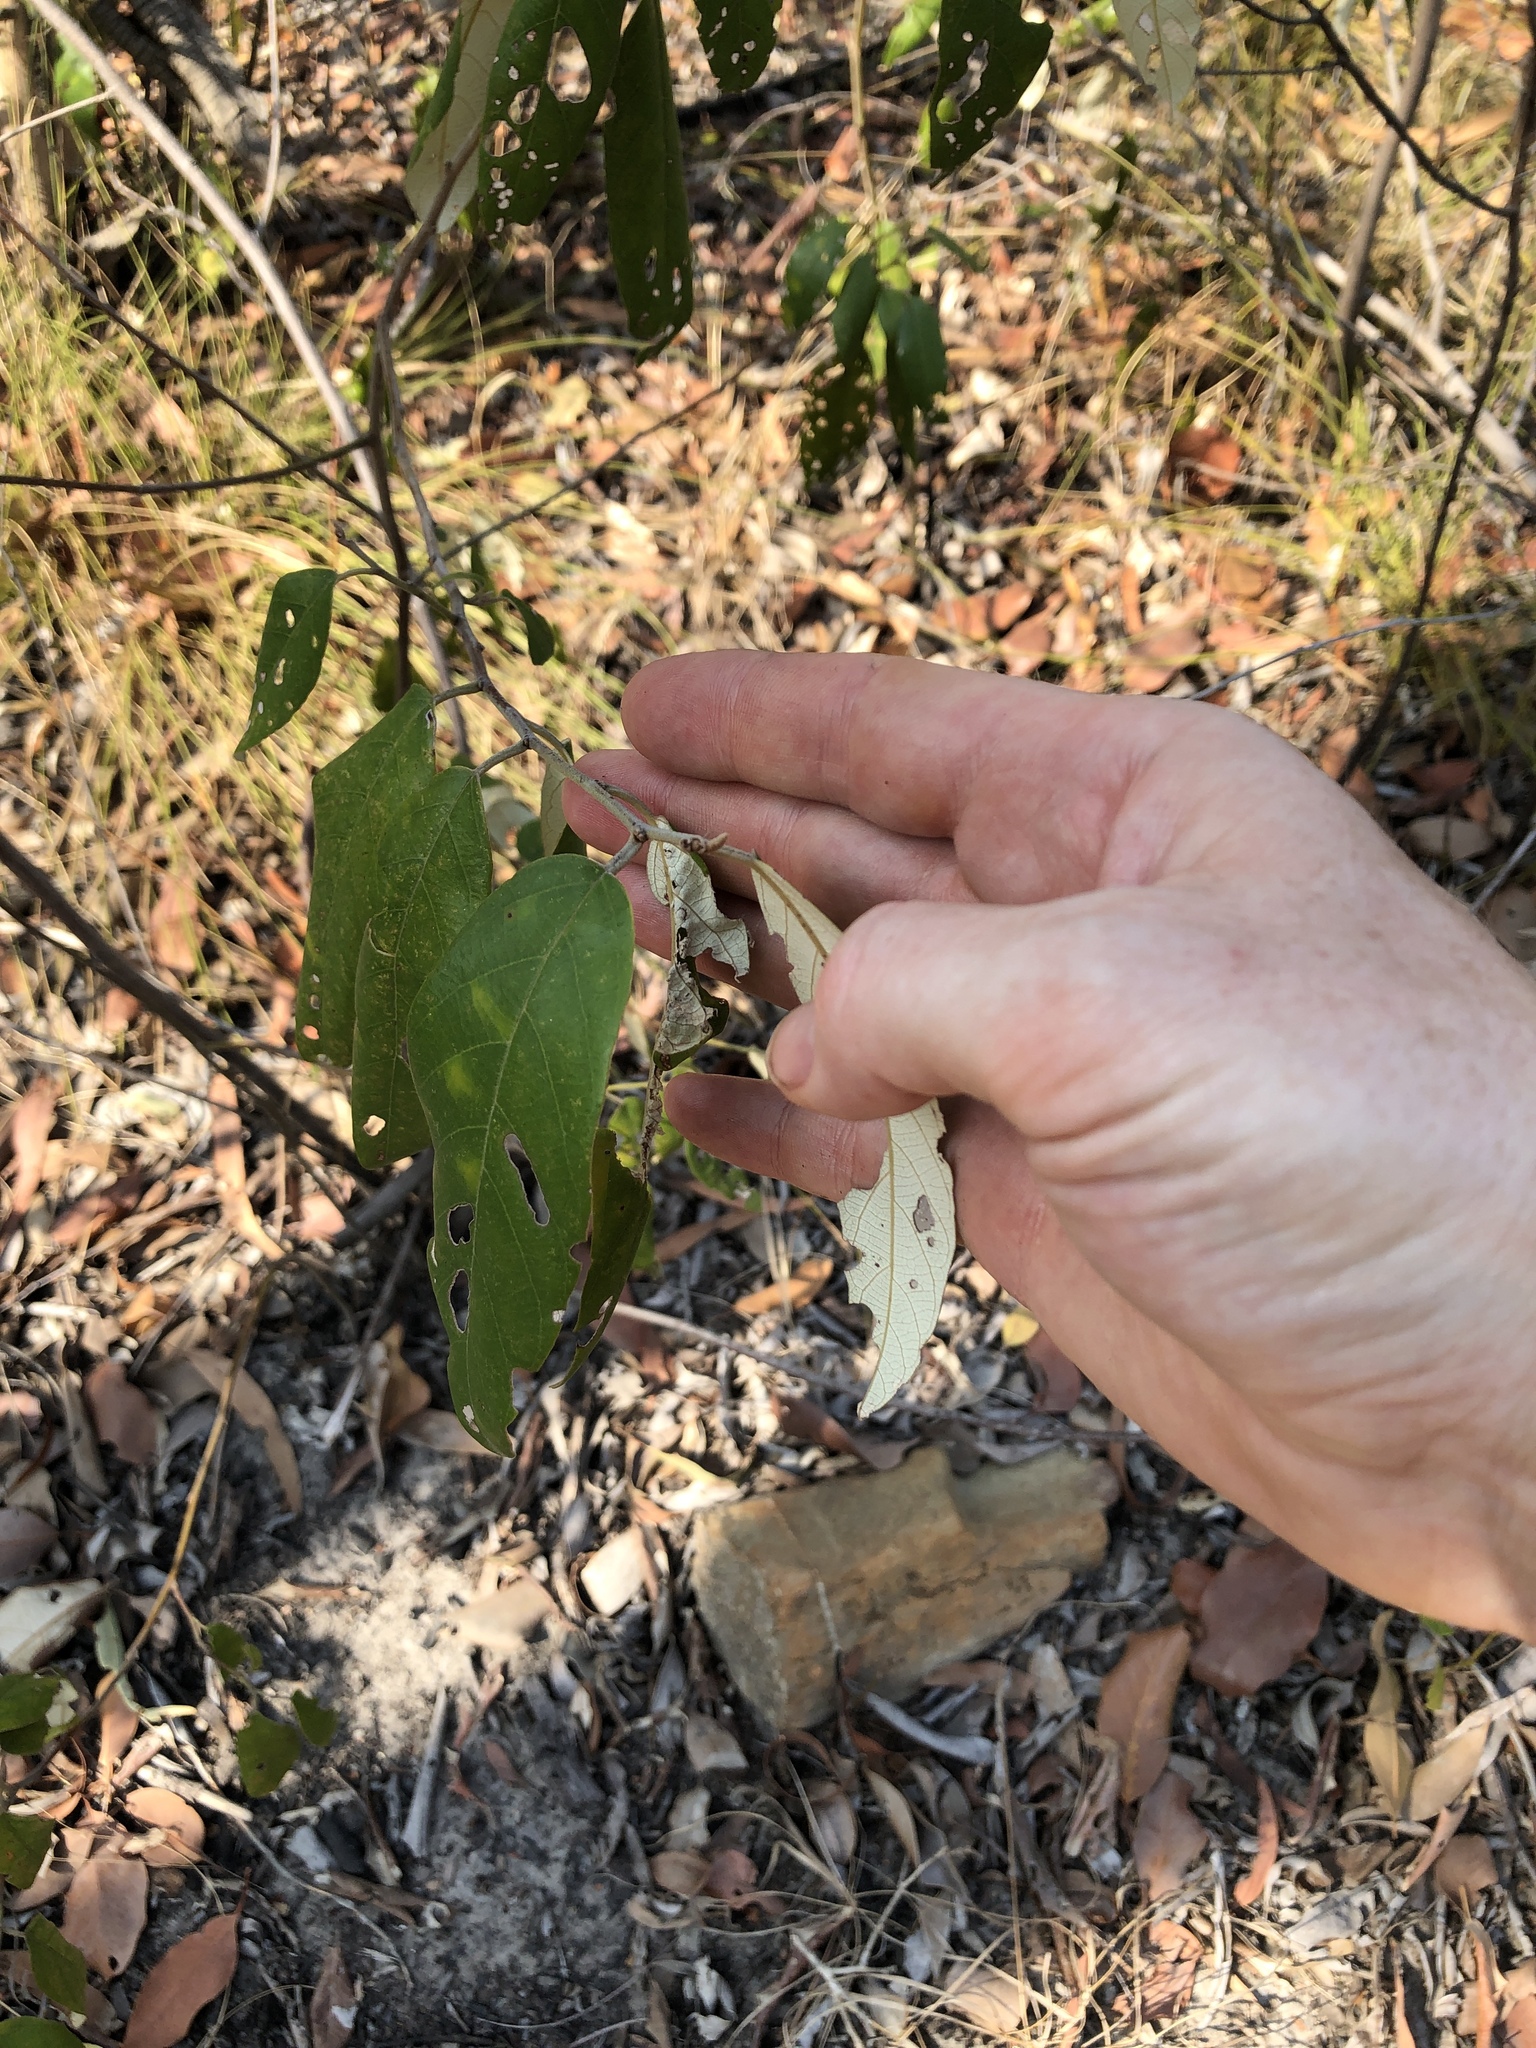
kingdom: Plantae
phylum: Tracheophyta
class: Magnoliopsida
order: Rosales
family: Rhamnaceae
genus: Alphitonia
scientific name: Alphitonia excelsa
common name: Red ash
